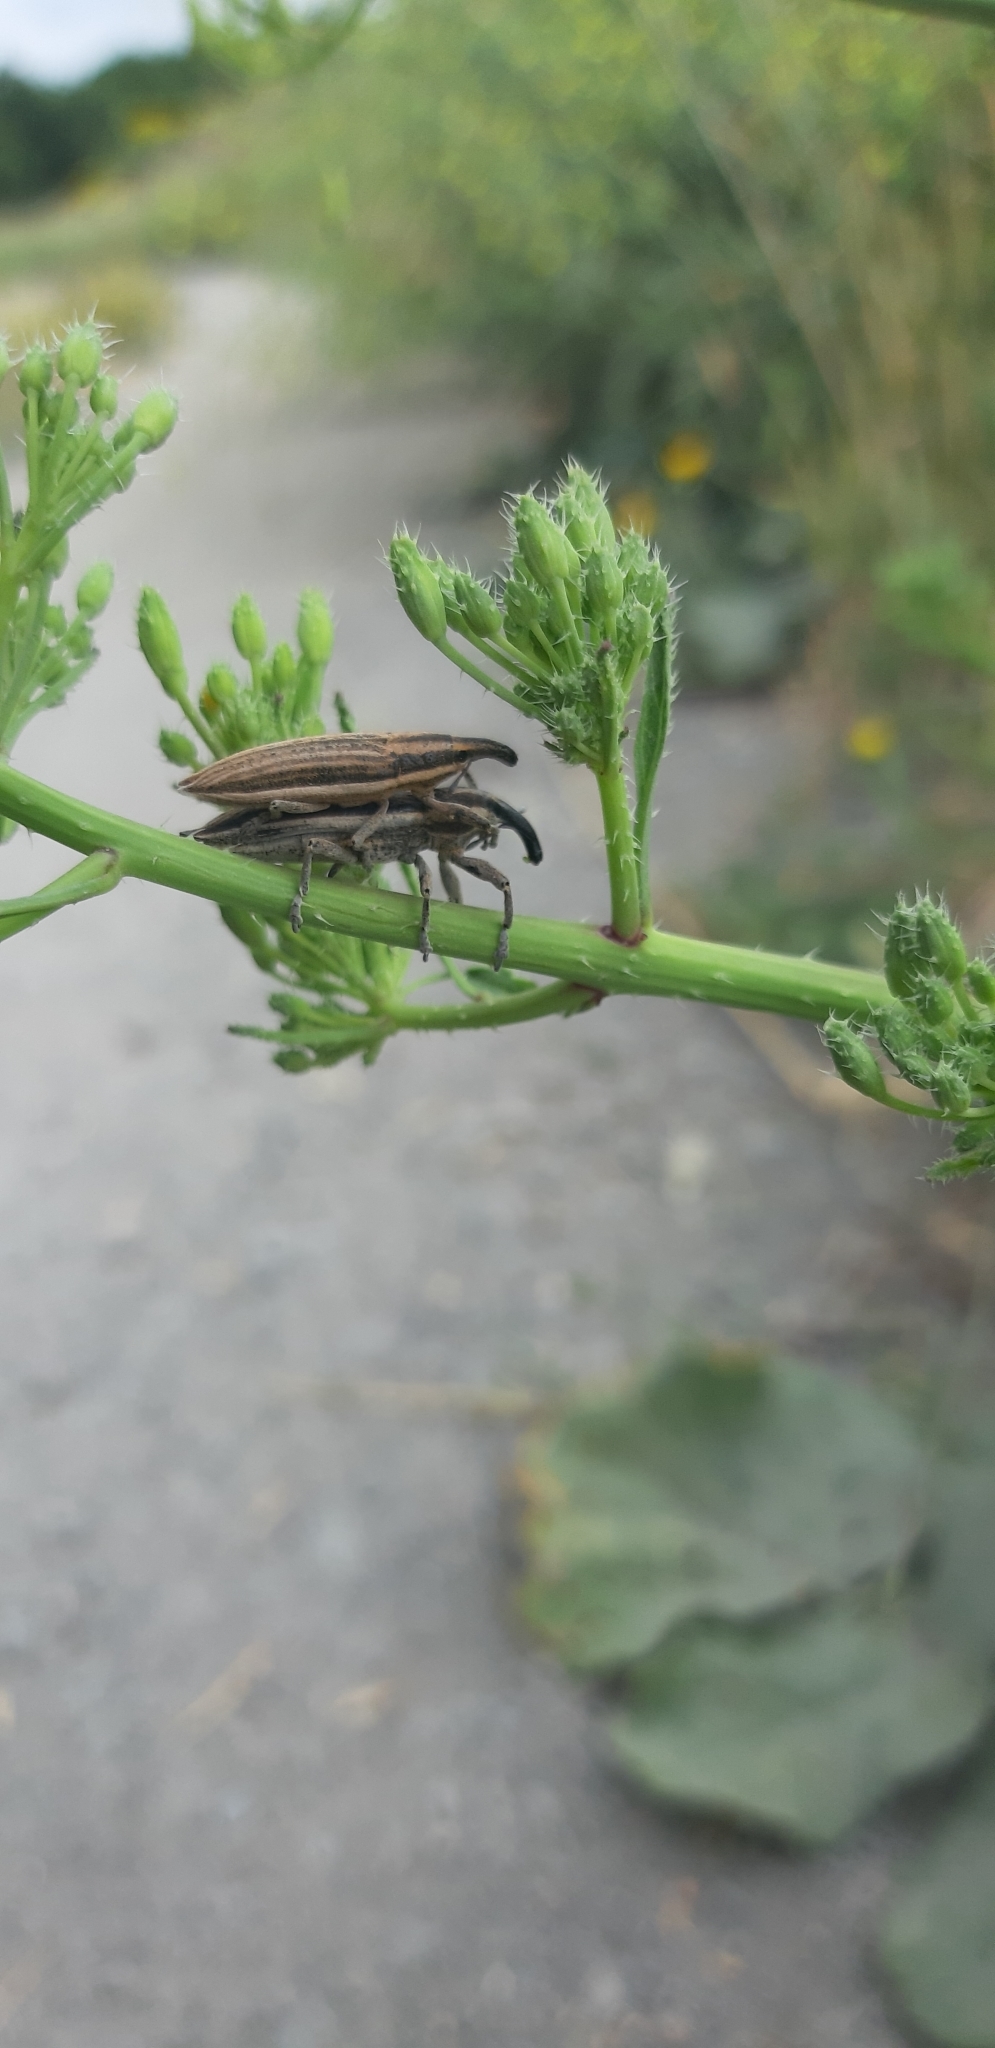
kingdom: Animalia
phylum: Arthropoda
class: Insecta
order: Coleoptera
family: Curculionidae
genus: Lixus
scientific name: Lixus anguinus
